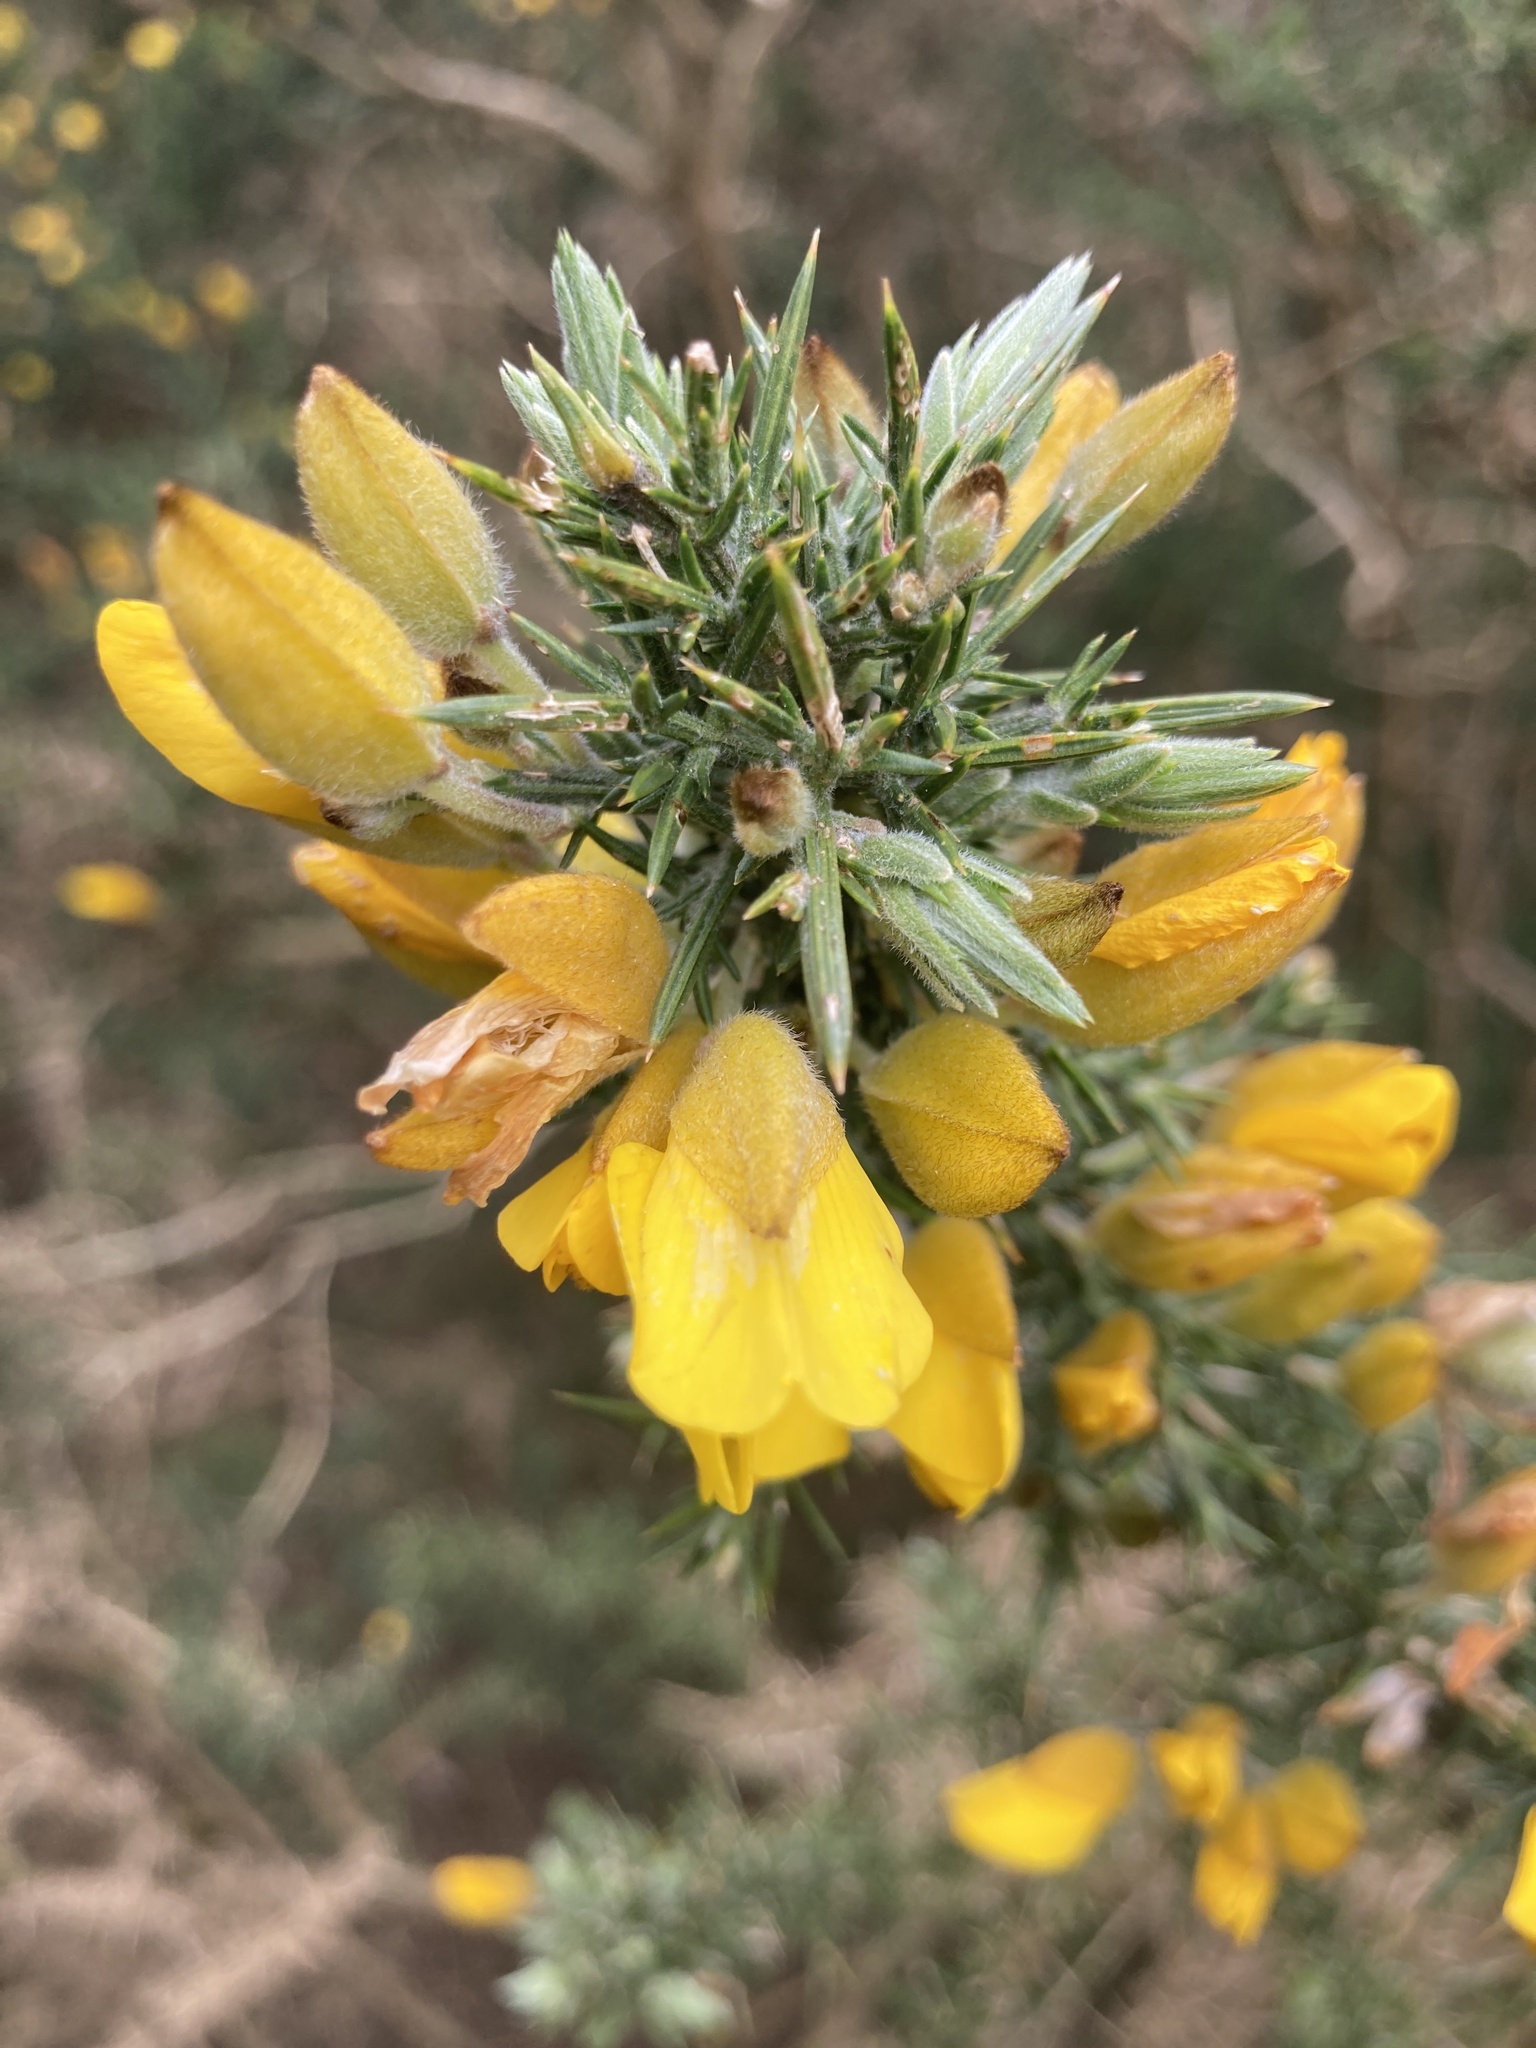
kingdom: Plantae
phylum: Tracheophyta
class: Magnoliopsida
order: Fabales
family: Fabaceae
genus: Ulex
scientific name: Ulex europaeus
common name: Common gorse
